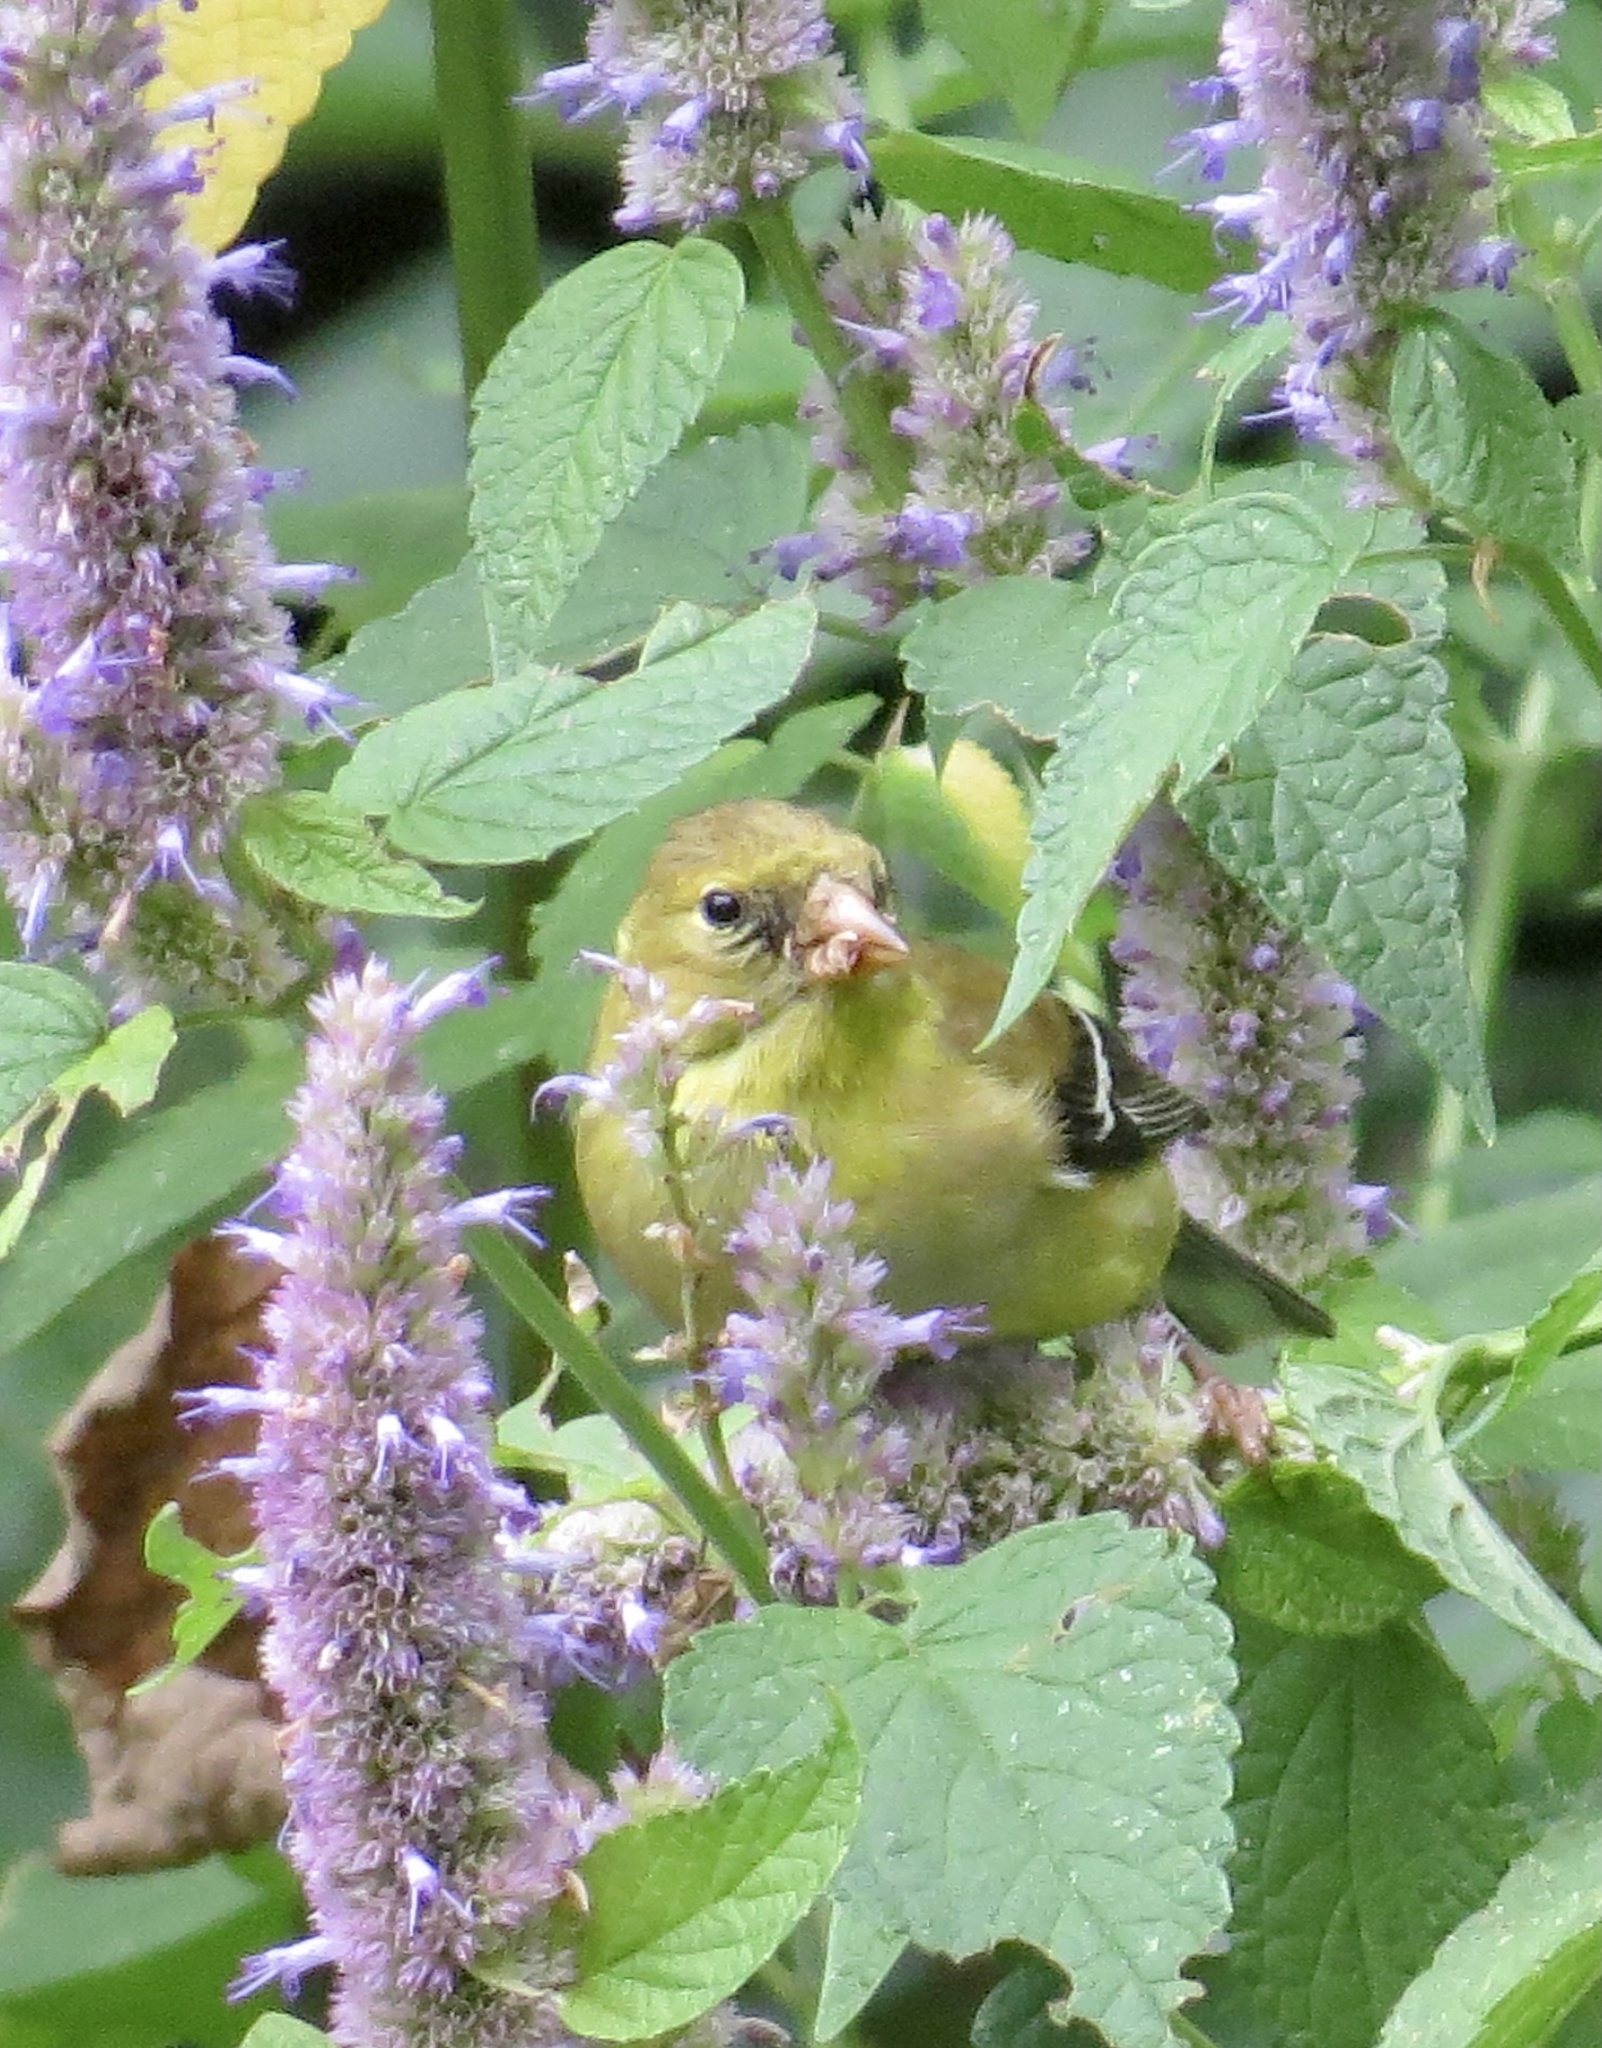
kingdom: Animalia
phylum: Chordata
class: Aves
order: Passeriformes
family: Fringillidae
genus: Spinus
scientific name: Spinus tristis
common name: American goldfinch
